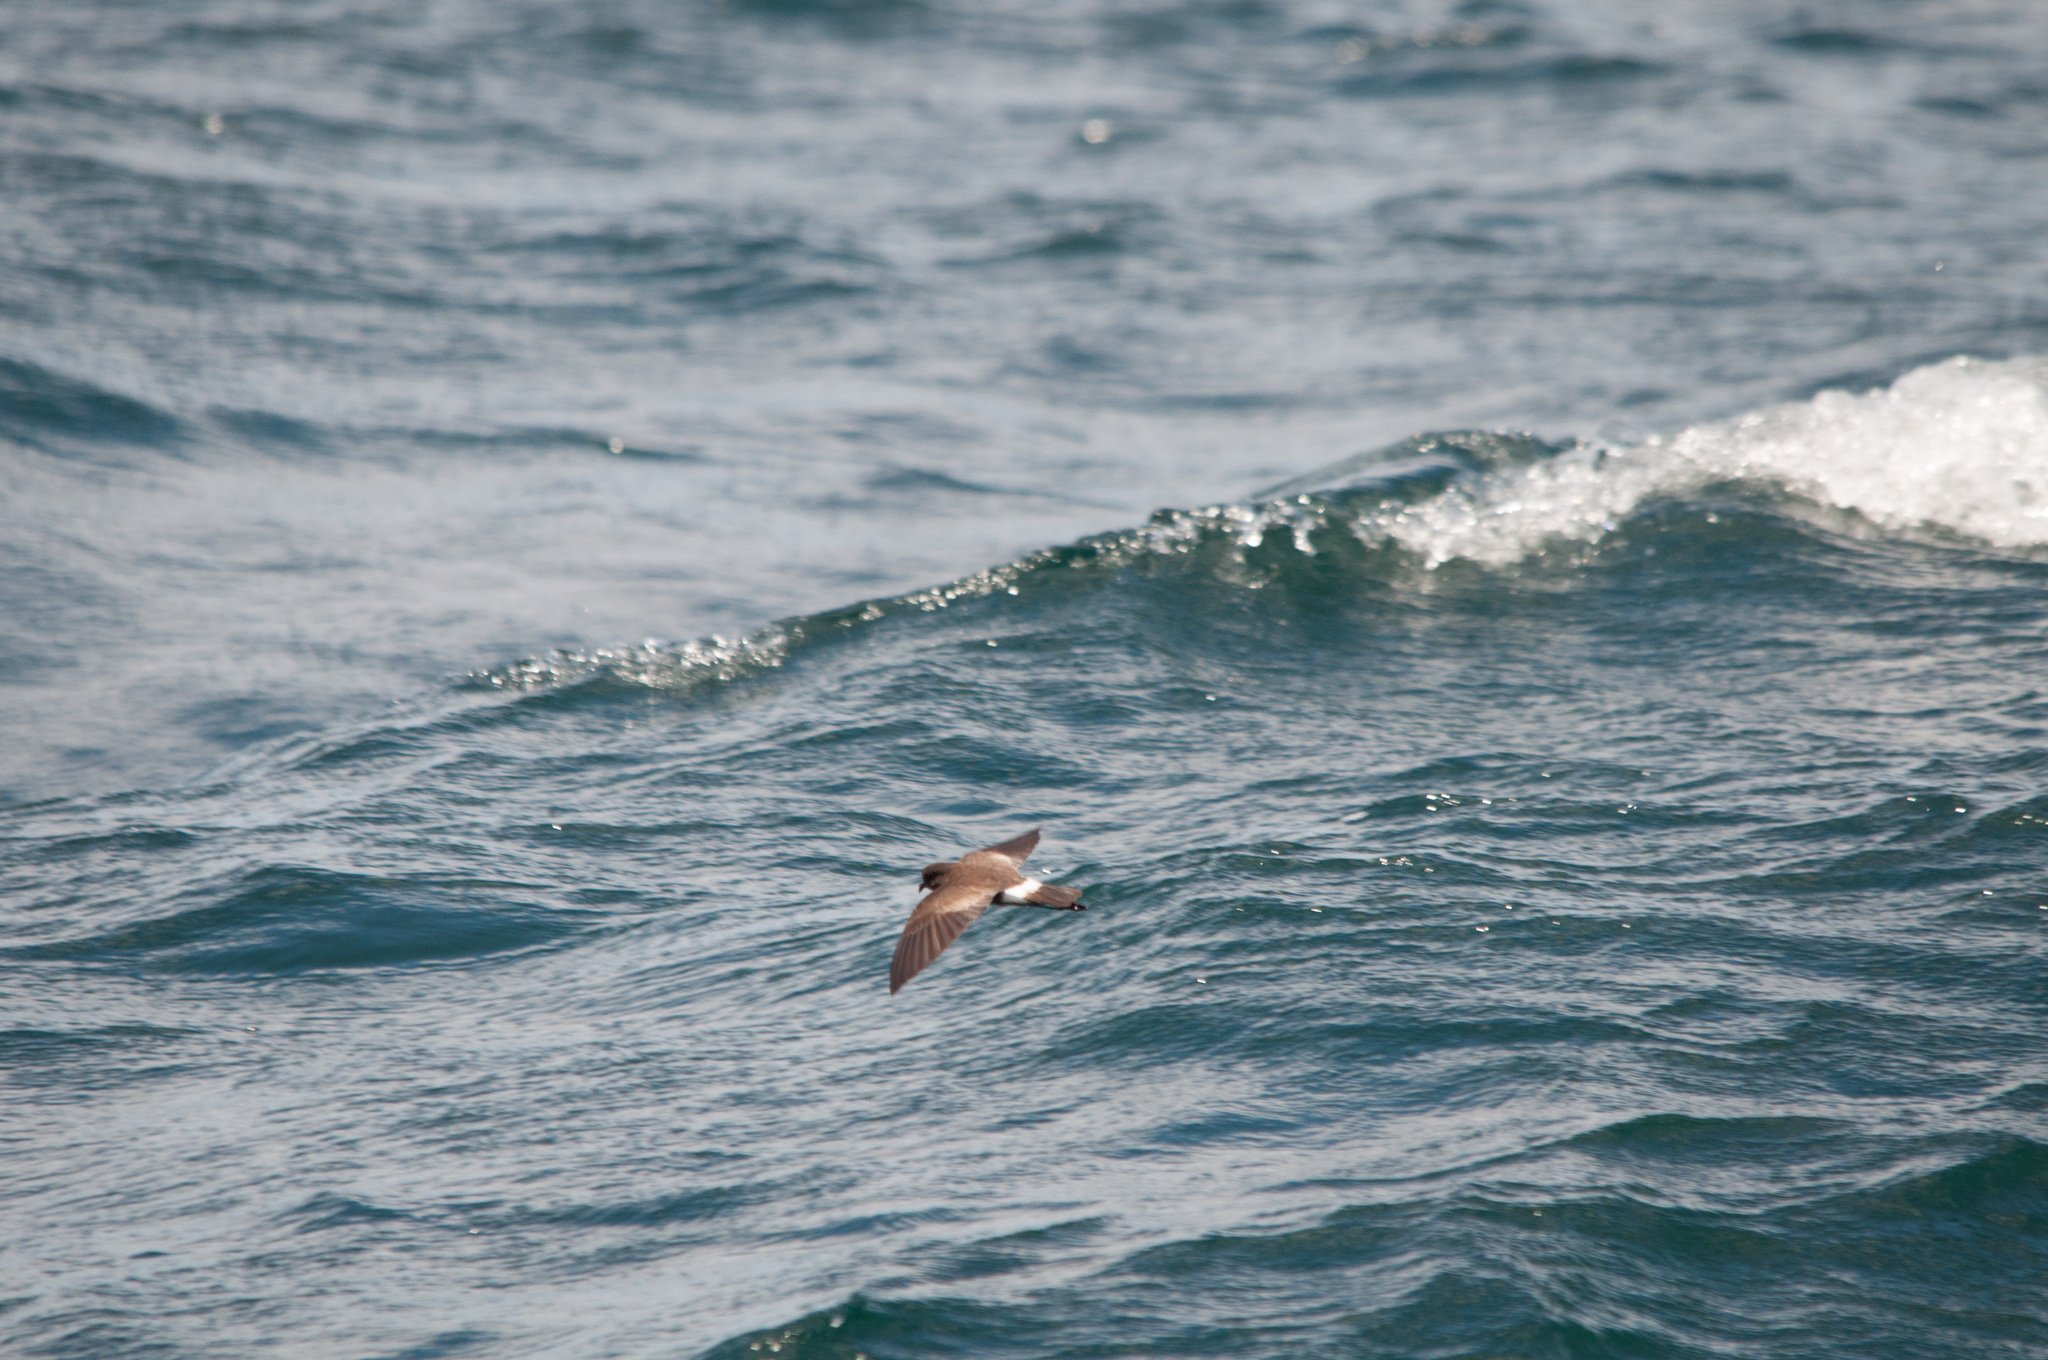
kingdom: Animalia
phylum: Chordata
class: Aves
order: Procellariiformes
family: Hydrobatidae
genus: Oceanites
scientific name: Oceanites gracilis
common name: Elliot's storm-petrel
